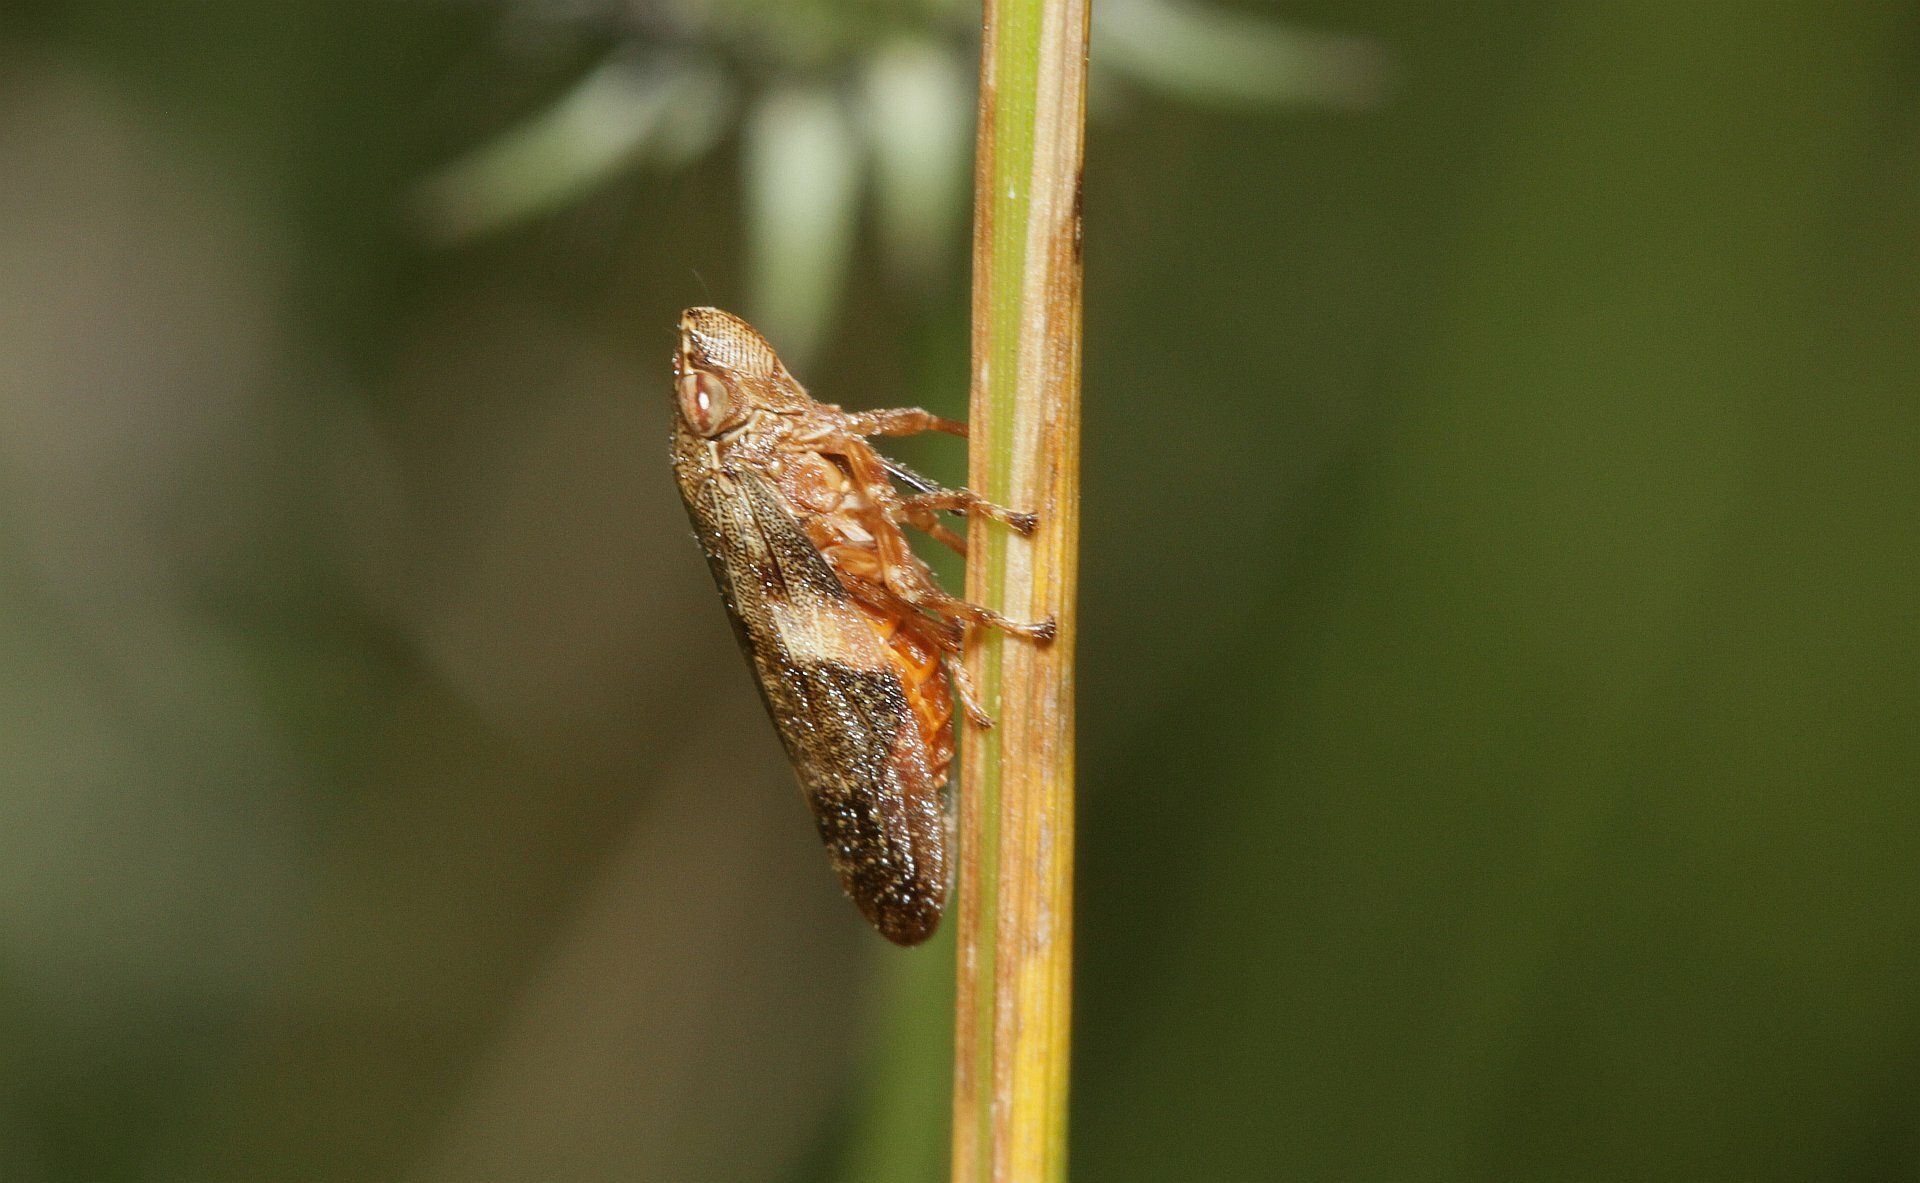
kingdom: Animalia
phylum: Arthropoda
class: Insecta
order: Hemiptera
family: Aphrophoridae
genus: Aphrophora
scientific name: Aphrophora alni
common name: European alder spittlebug
